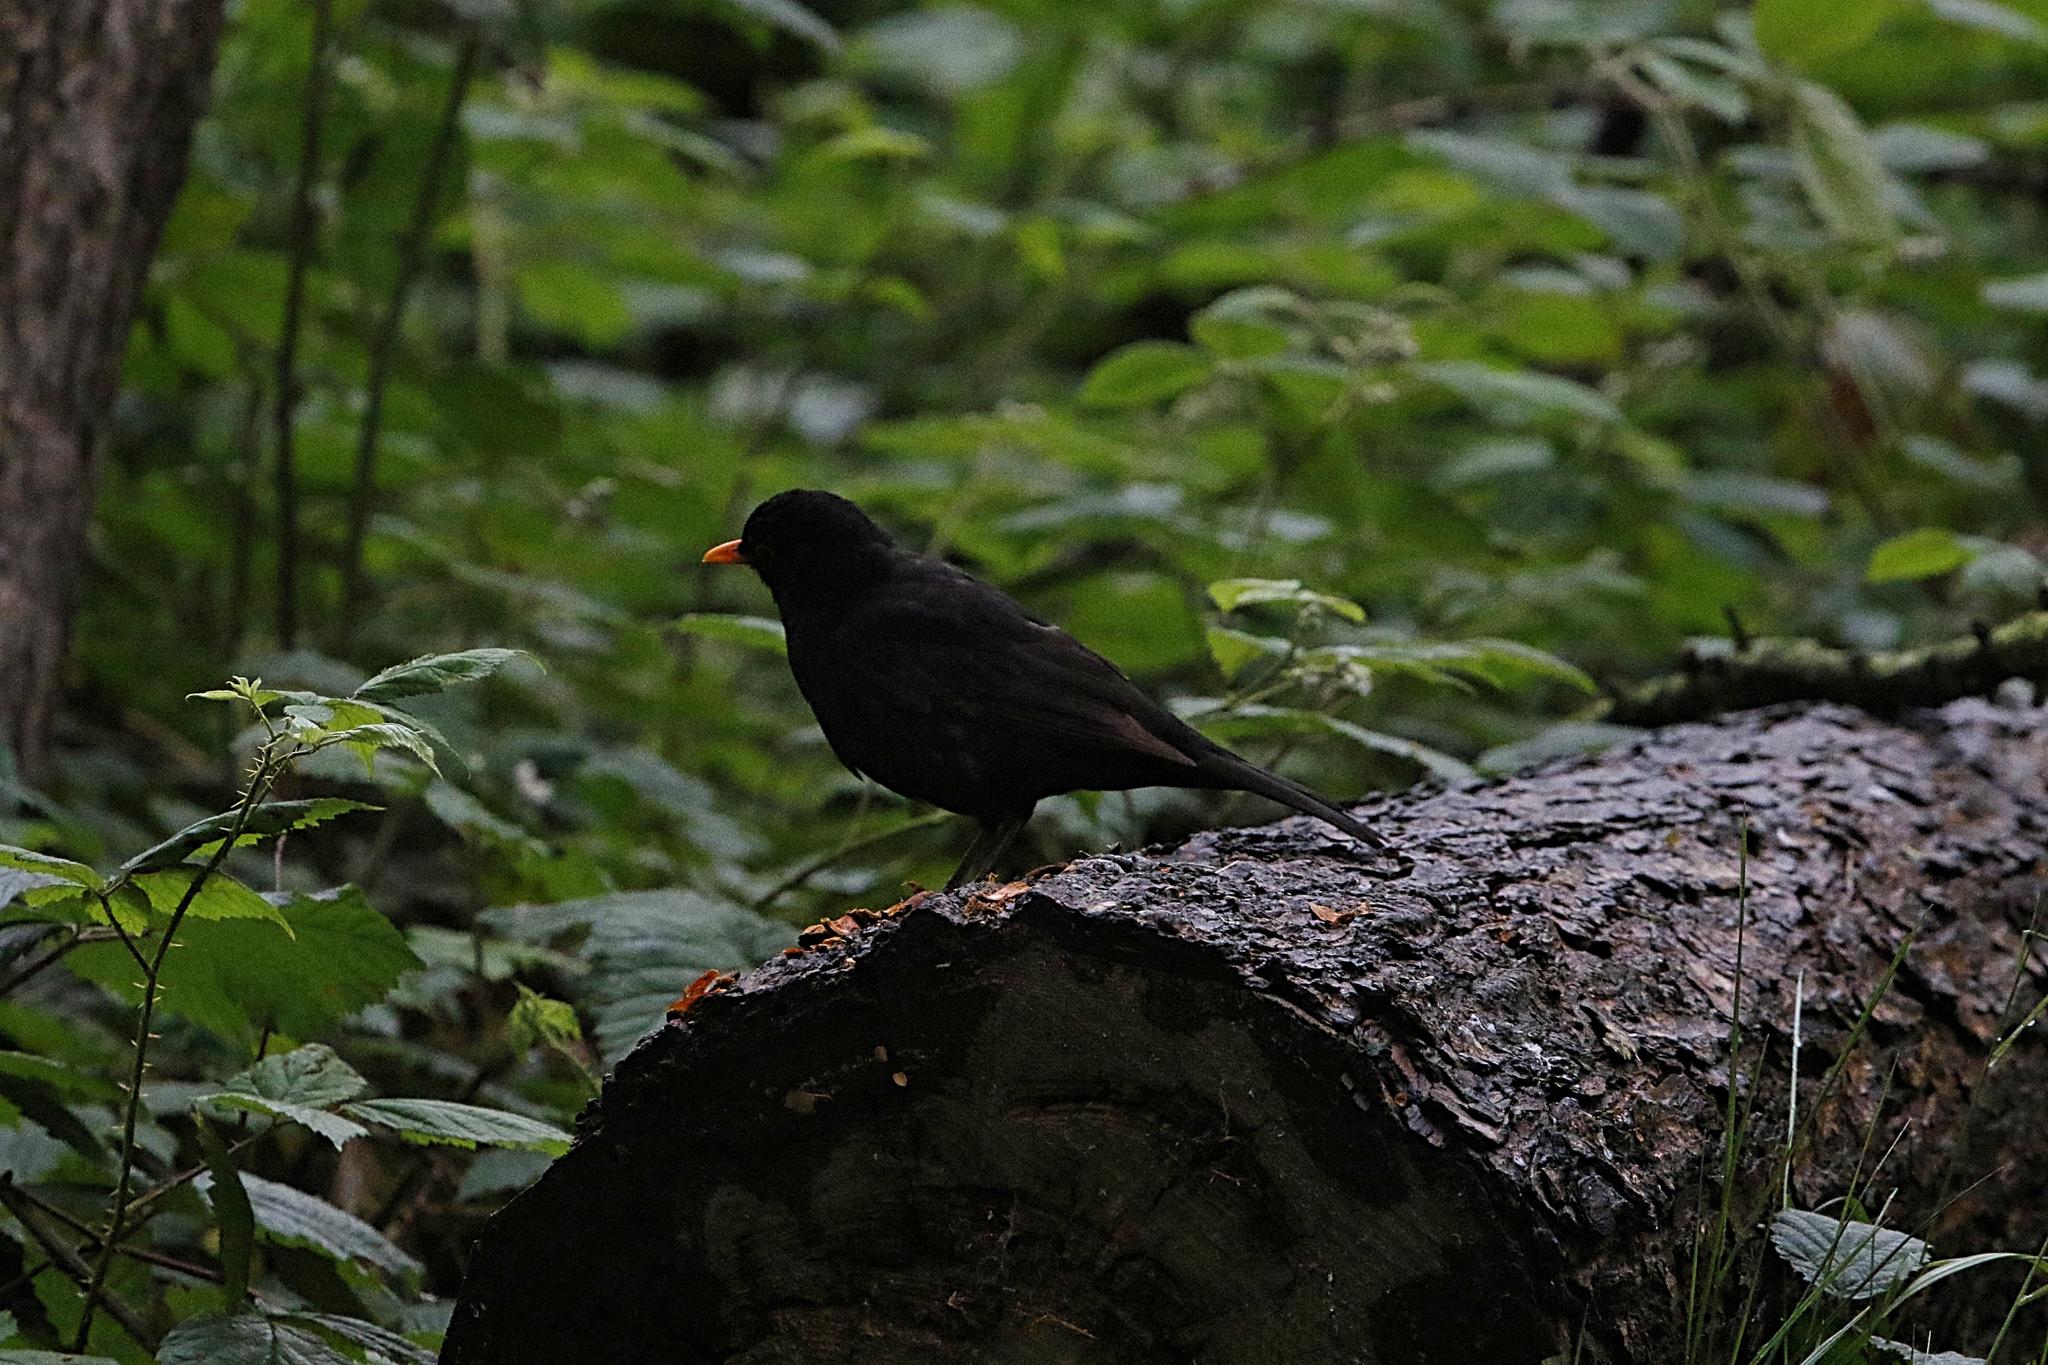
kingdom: Animalia
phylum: Chordata
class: Aves
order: Passeriformes
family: Turdidae
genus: Turdus
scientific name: Turdus merula
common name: Common blackbird
